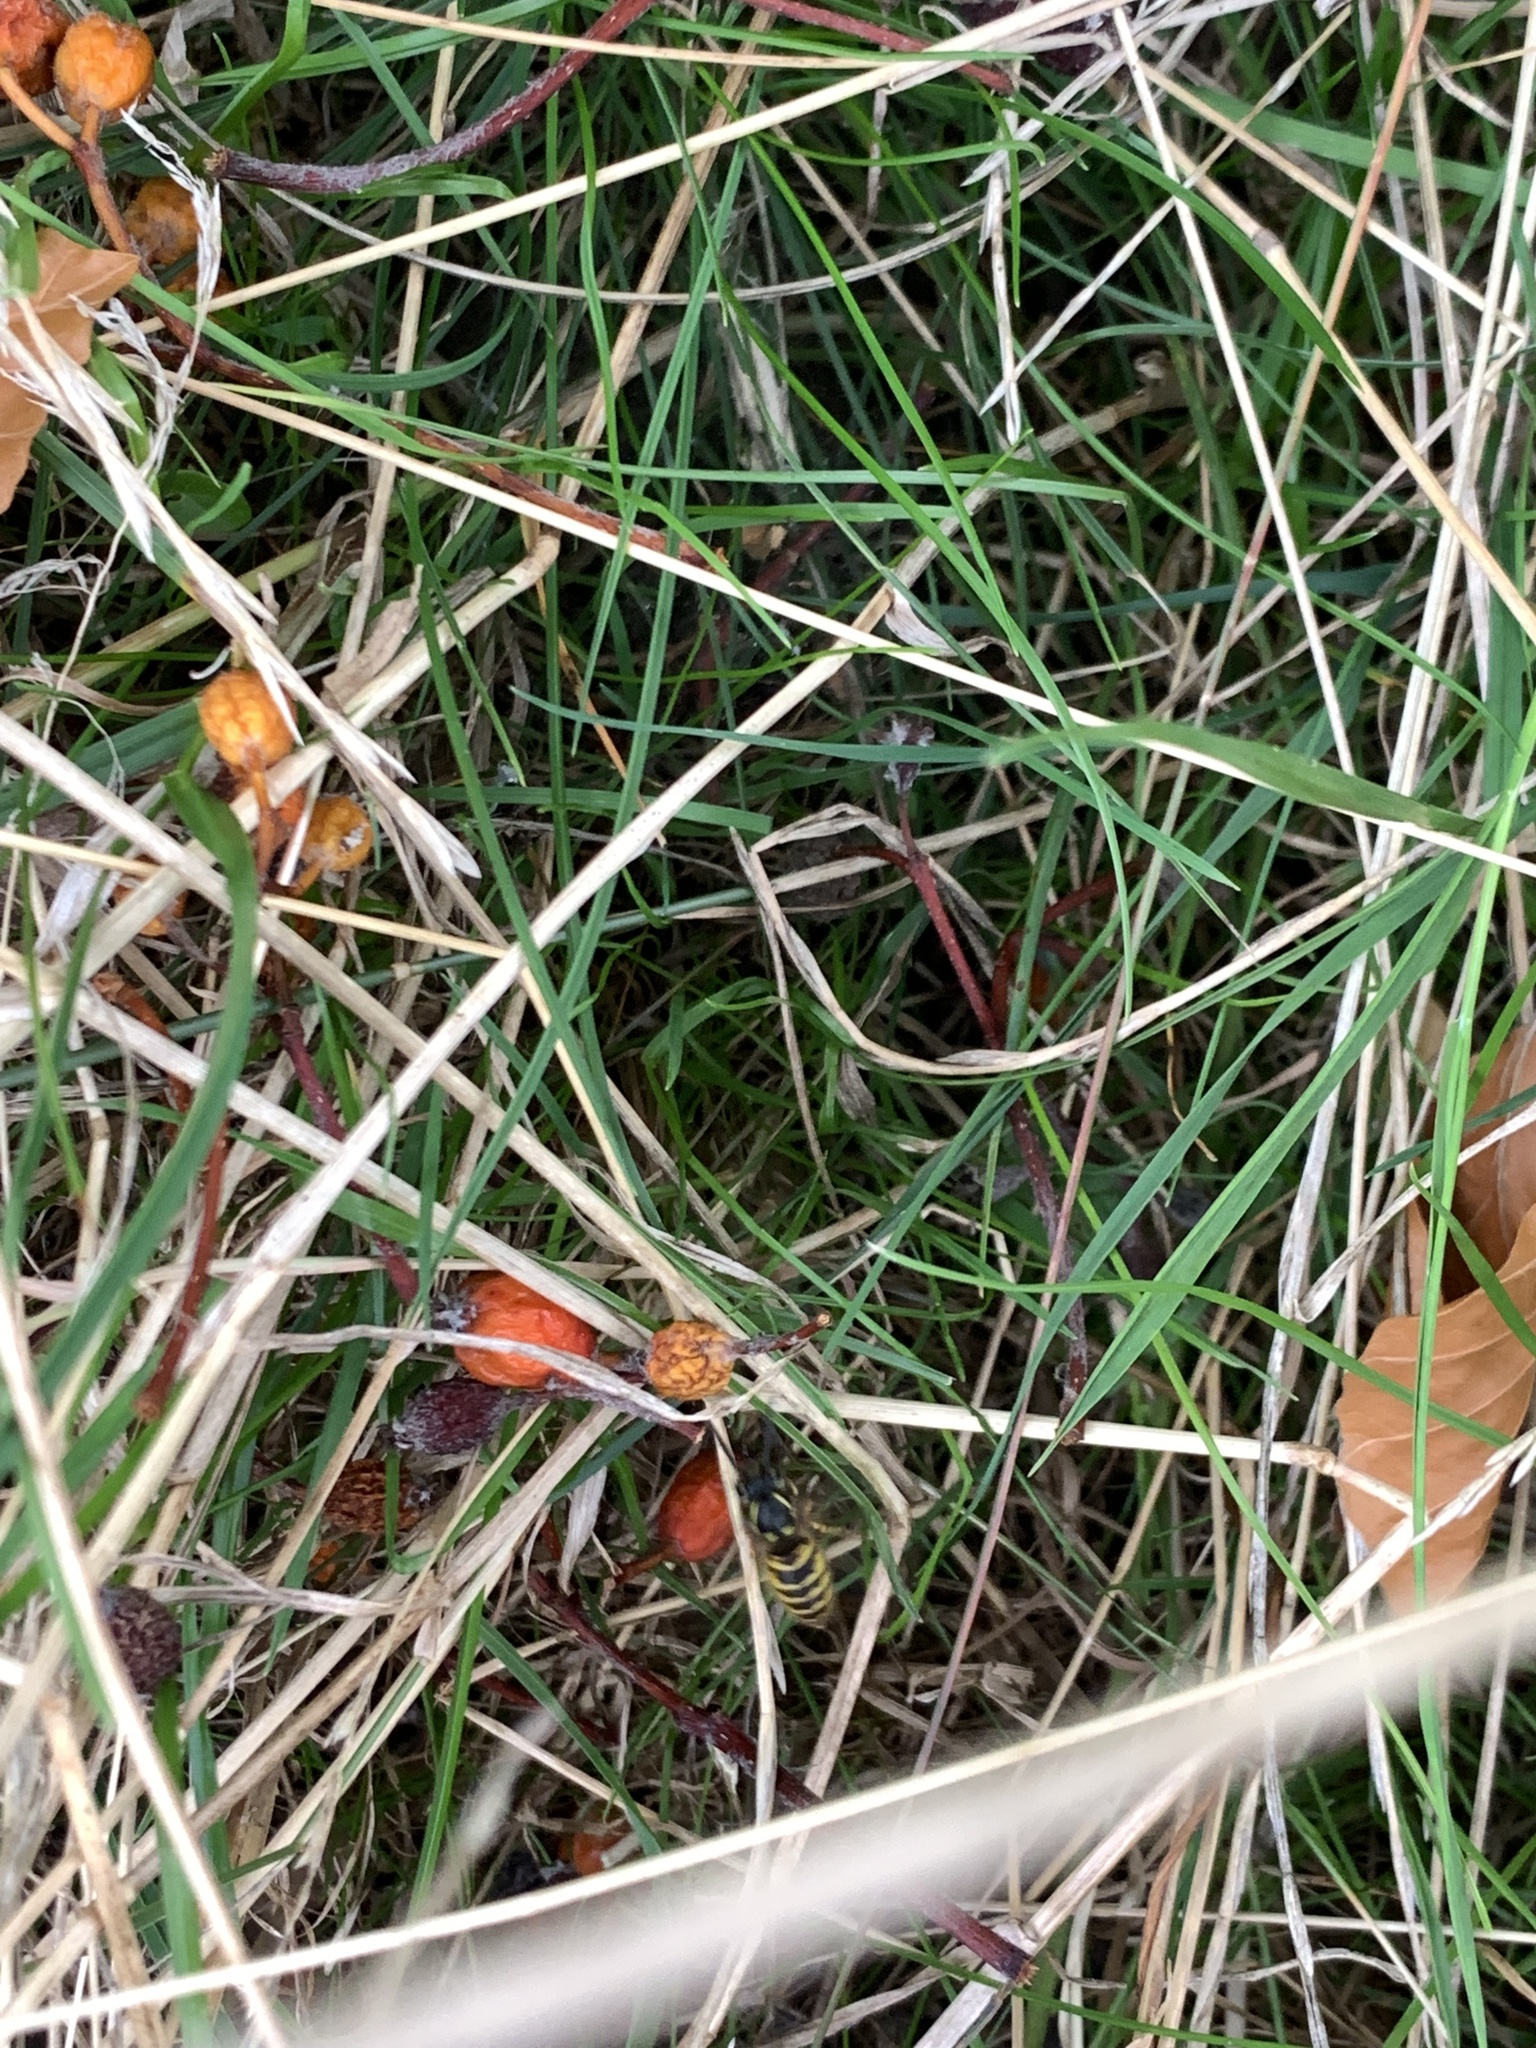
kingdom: Animalia
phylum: Arthropoda
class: Insecta
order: Hymenoptera
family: Vespidae
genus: Vespula
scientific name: Vespula vulgaris
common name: Common wasp
